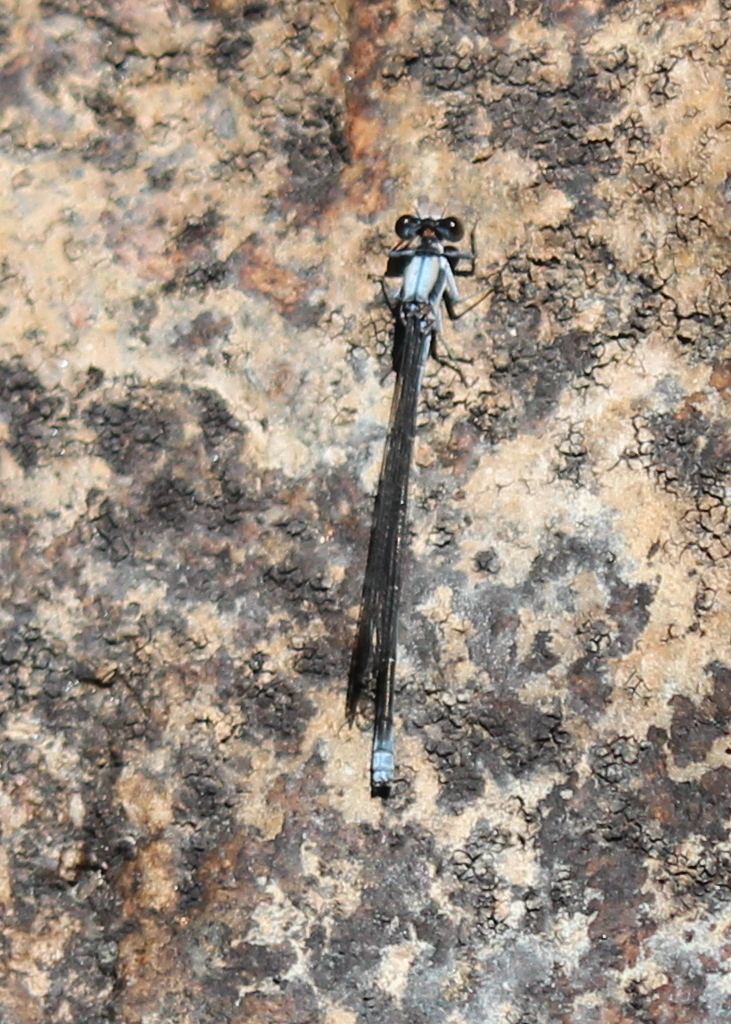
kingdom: Animalia
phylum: Arthropoda
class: Insecta
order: Odonata
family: Coenagrionidae
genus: Argia
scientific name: Argia moesta
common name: Powdered dancer
